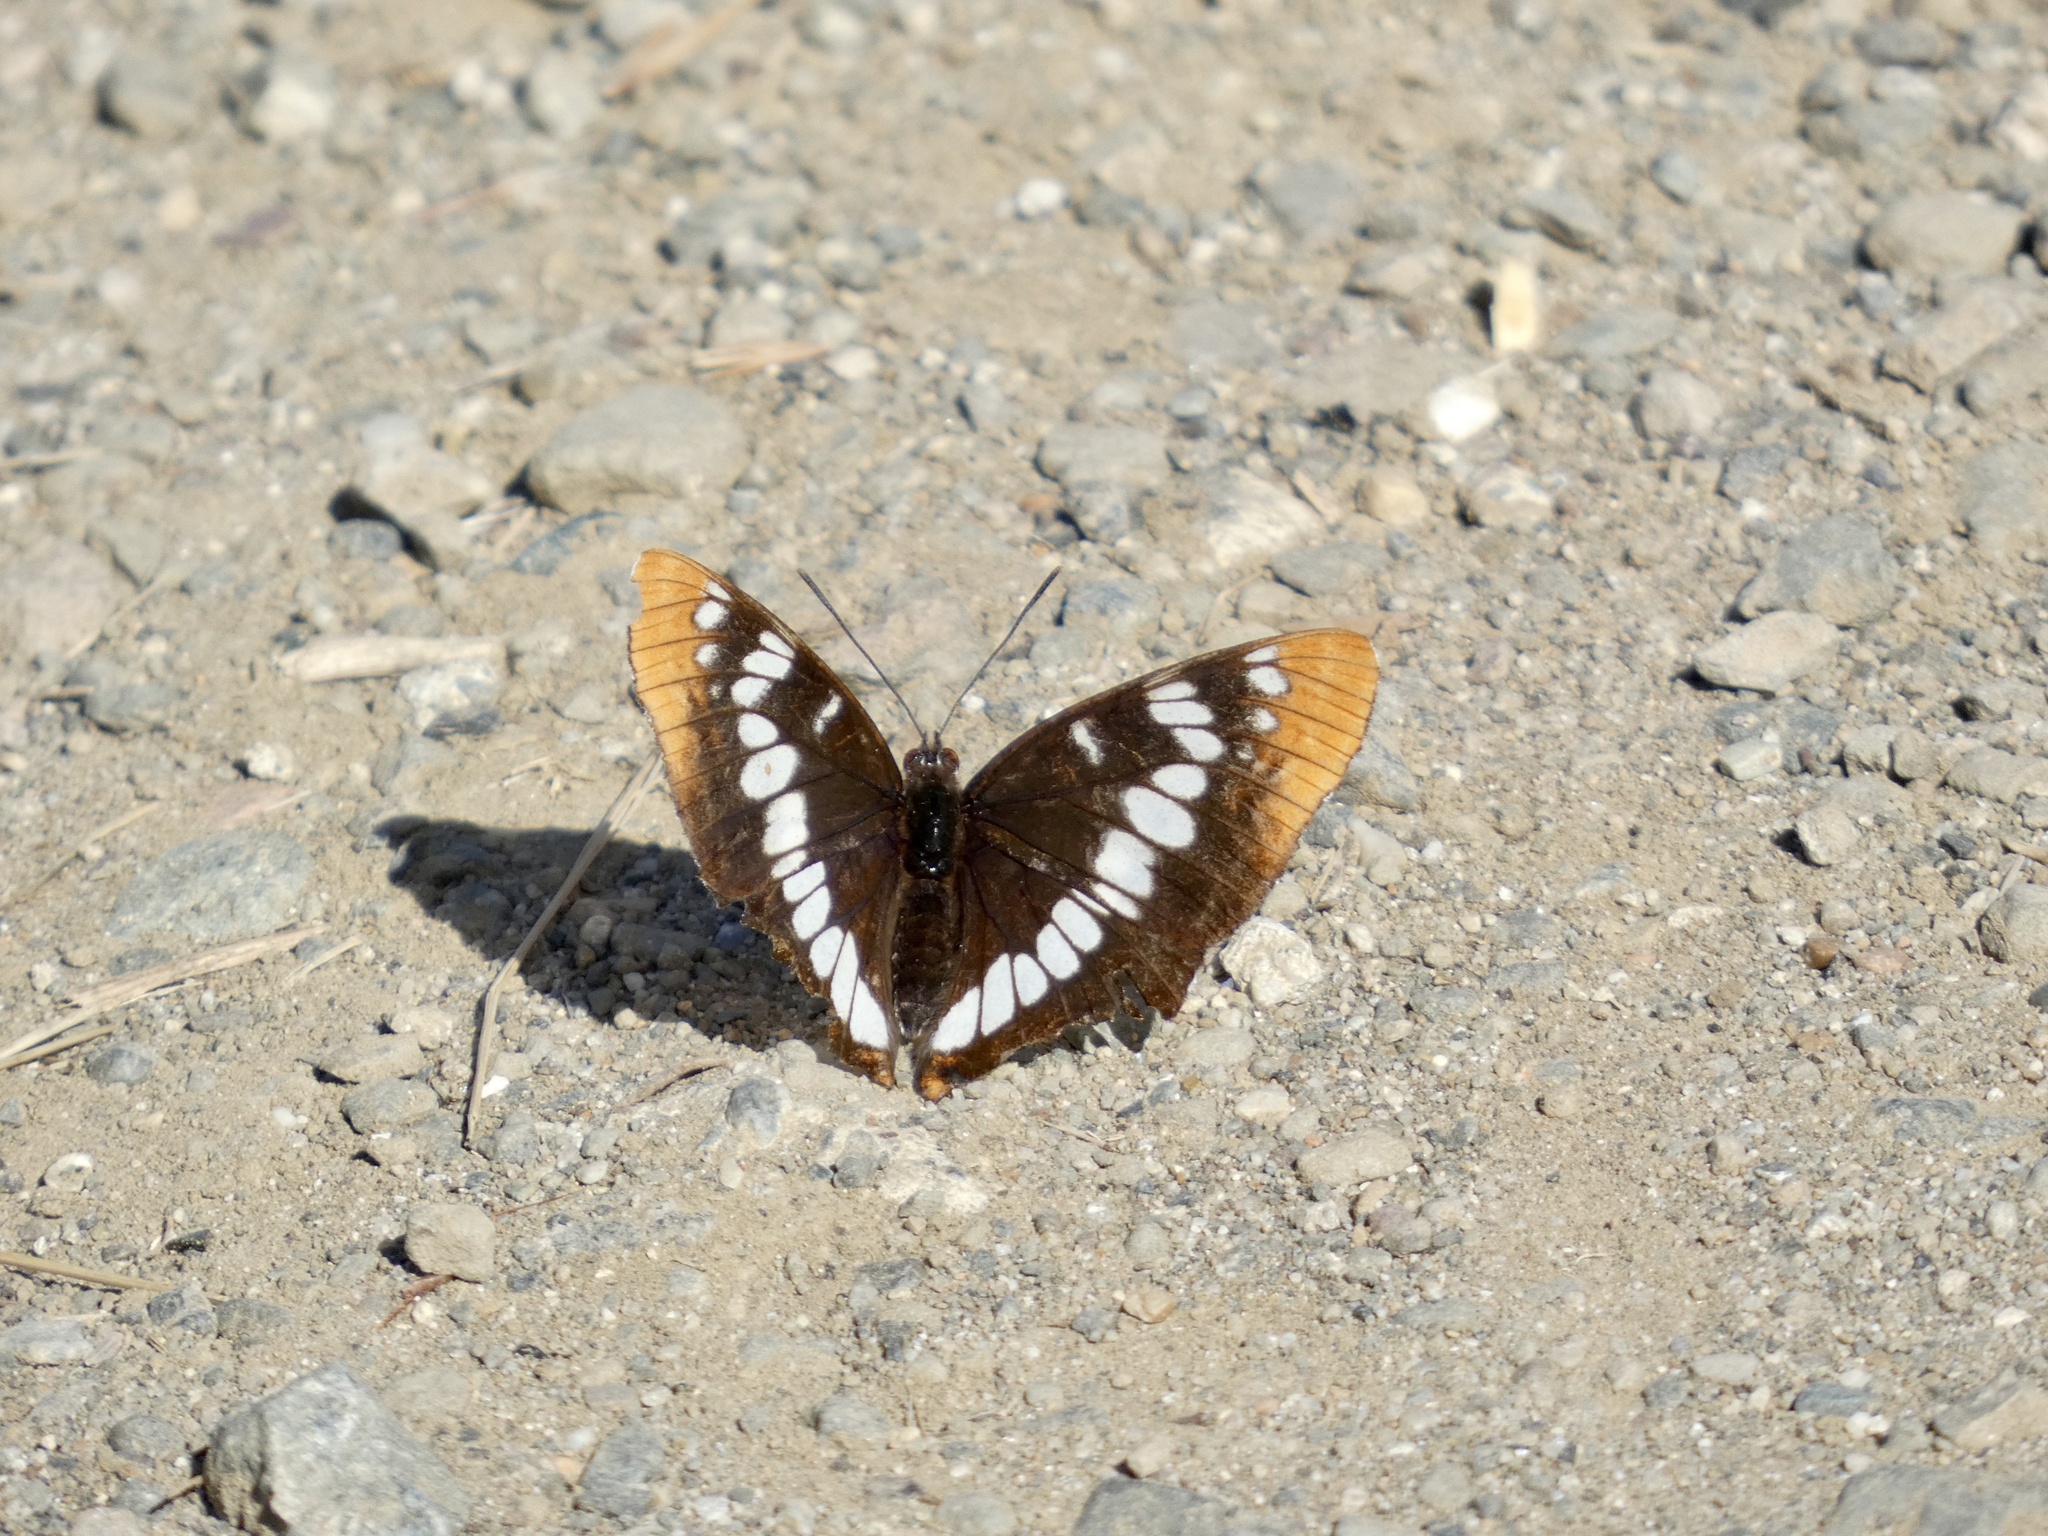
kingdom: Animalia
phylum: Arthropoda
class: Insecta
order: Lepidoptera
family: Nymphalidae
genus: Limenitis
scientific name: Limenitis lorquini
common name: Lorquin's admiral
